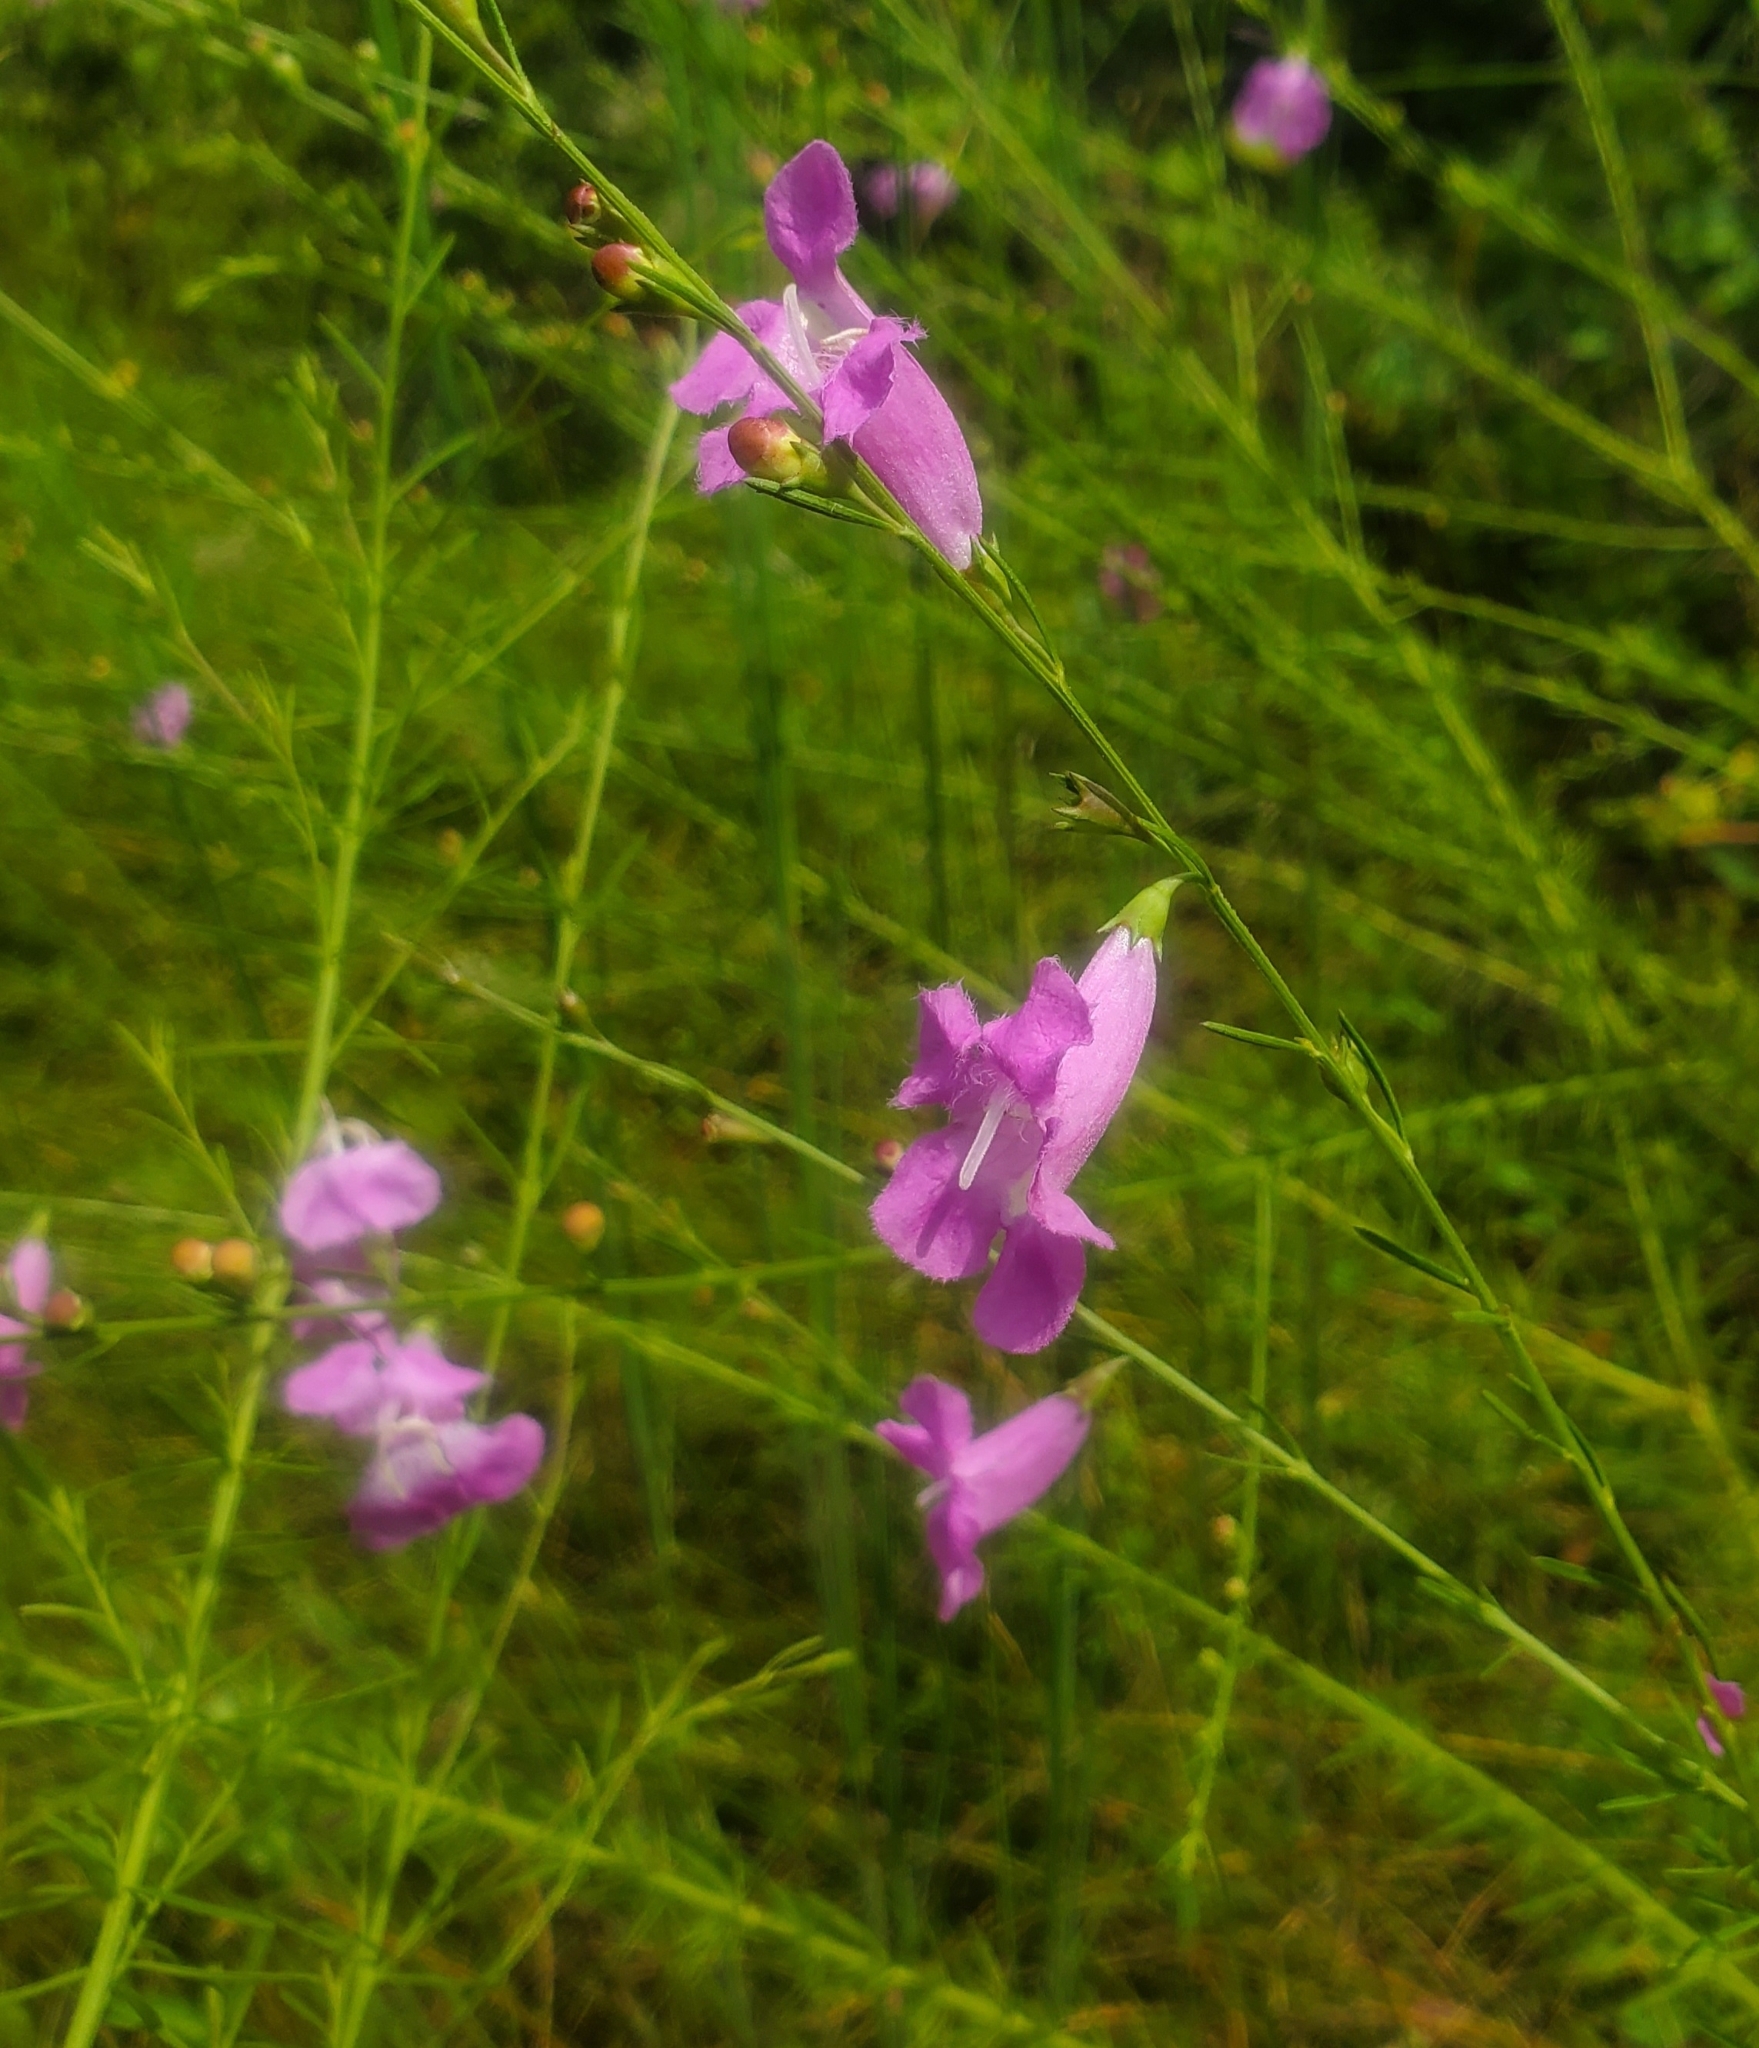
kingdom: Plantae
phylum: Tracheophyta
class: Magnoliopsida
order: Lamiales
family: Orobanchaceae
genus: Agalinis
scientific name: Agalinis fasciculata
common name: Beach false foxglove
